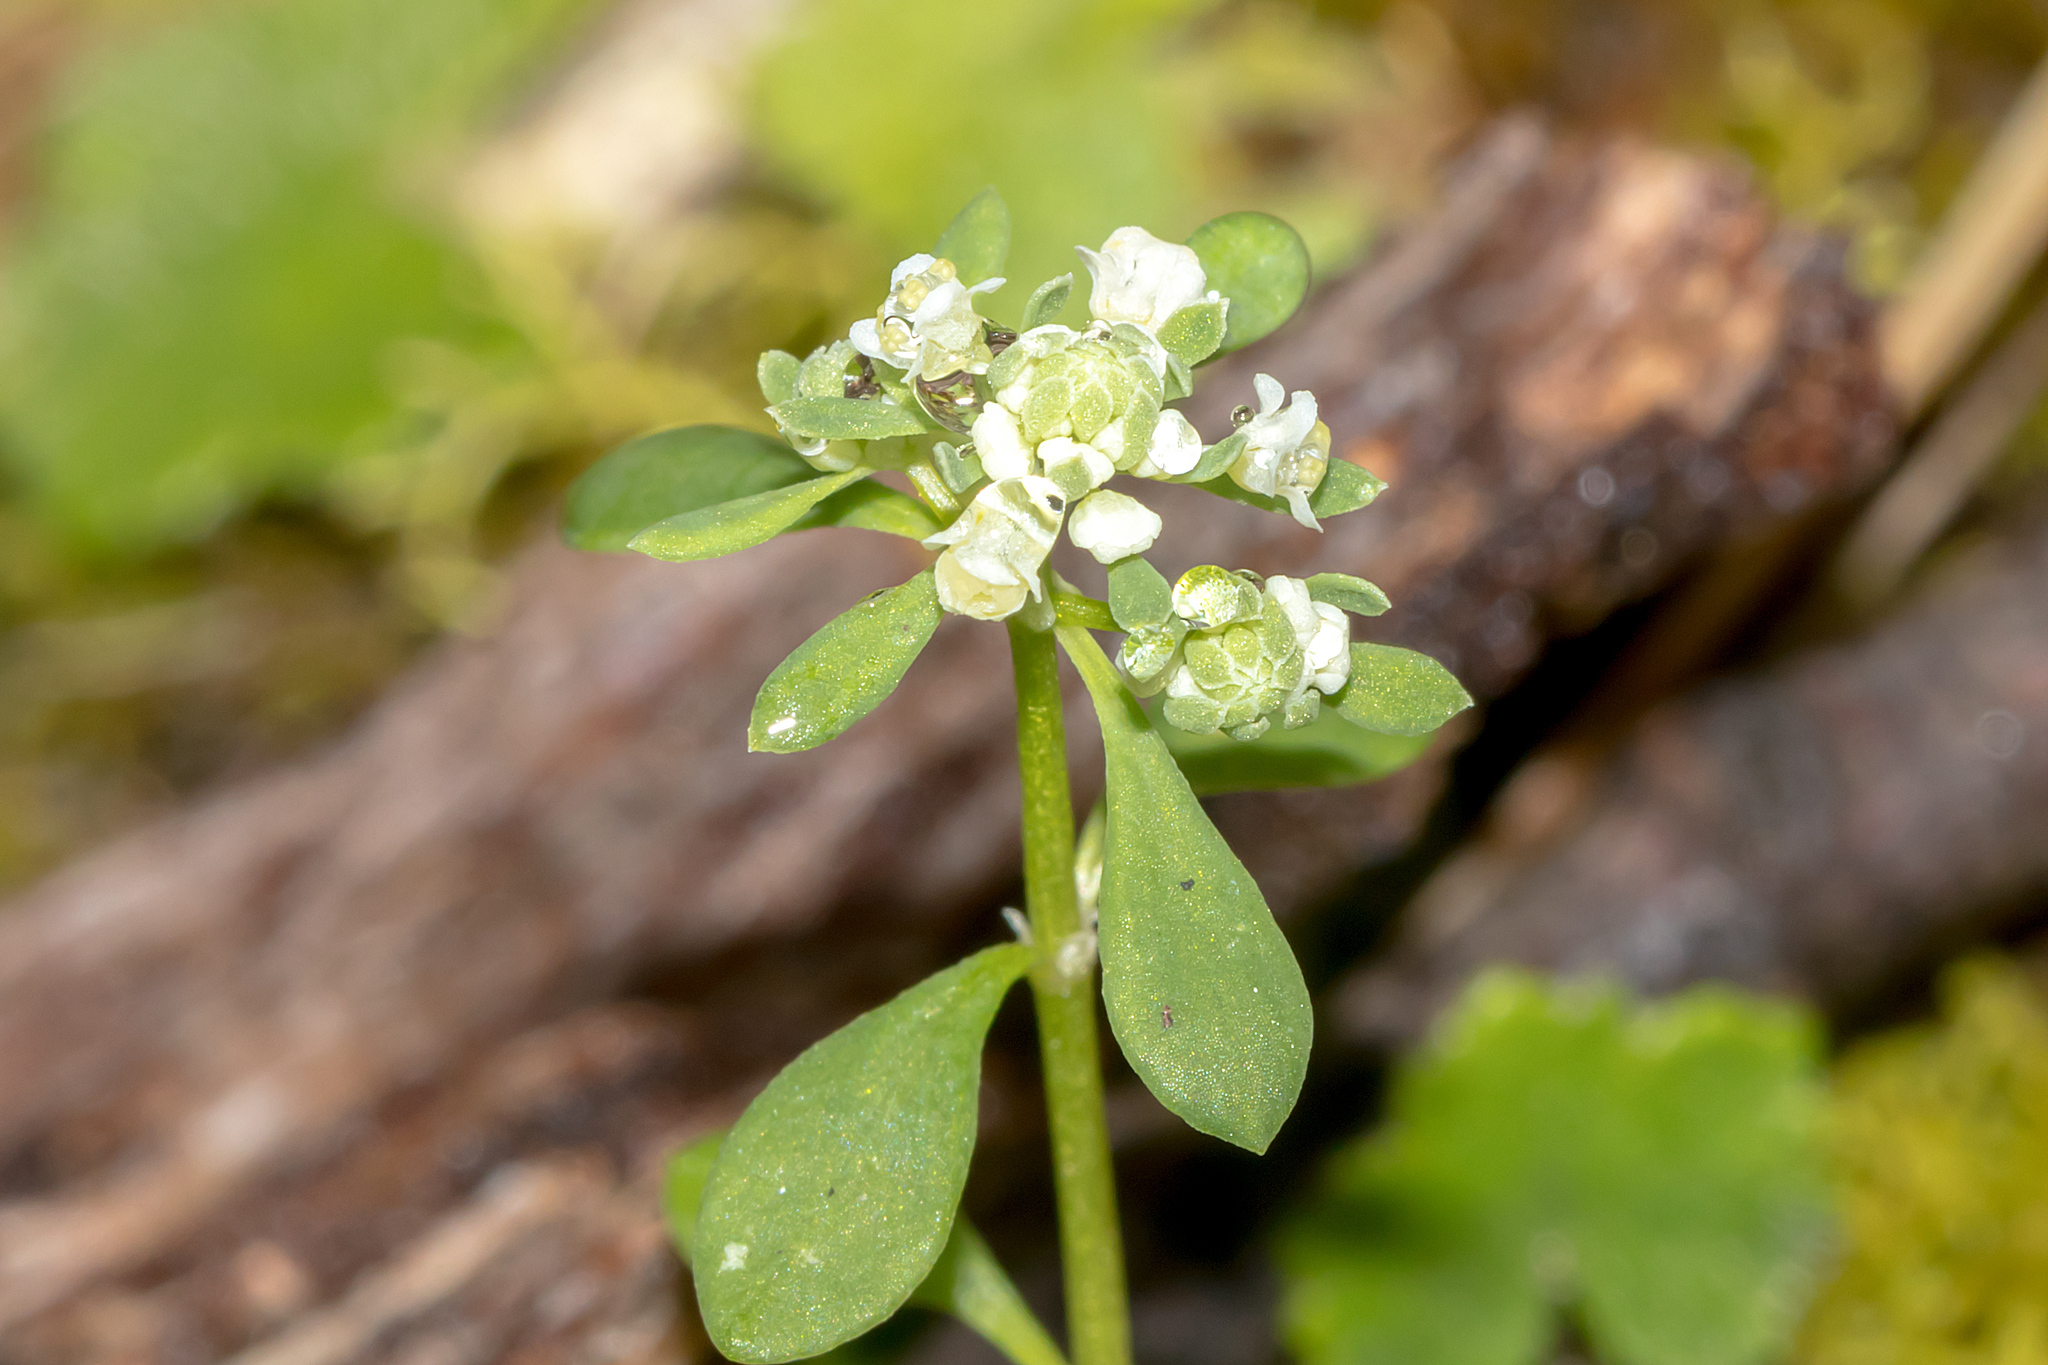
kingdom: Plantae
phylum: Tracheophyta
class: Magnoliopsida
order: Malpighiales
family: Phyllanthaceae
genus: Poranthera
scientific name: Poranthera microphylla
